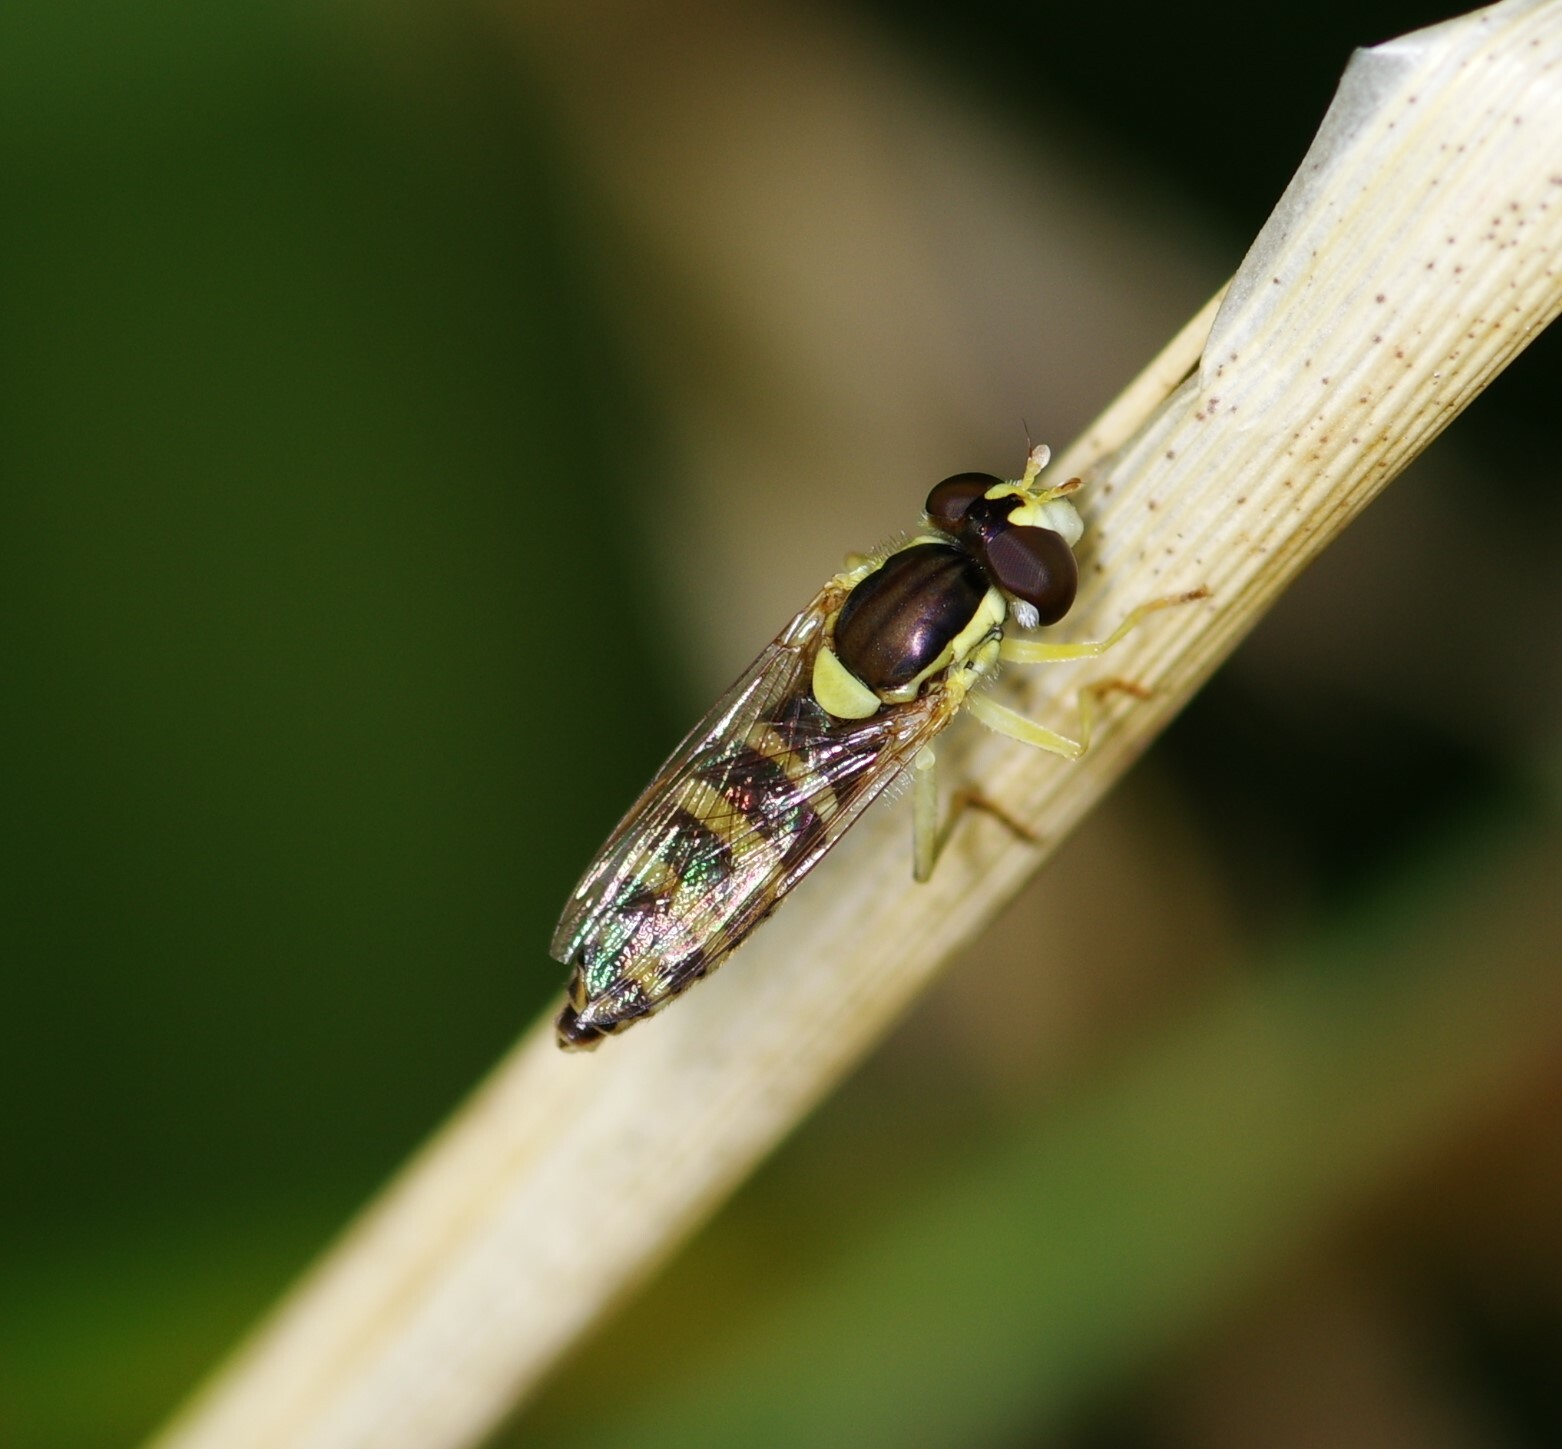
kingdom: Animalia
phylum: Arthropoda
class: Insecta
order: Diptera
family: Syrphidae
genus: Sphaerophoria
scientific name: Sphaerophoria
